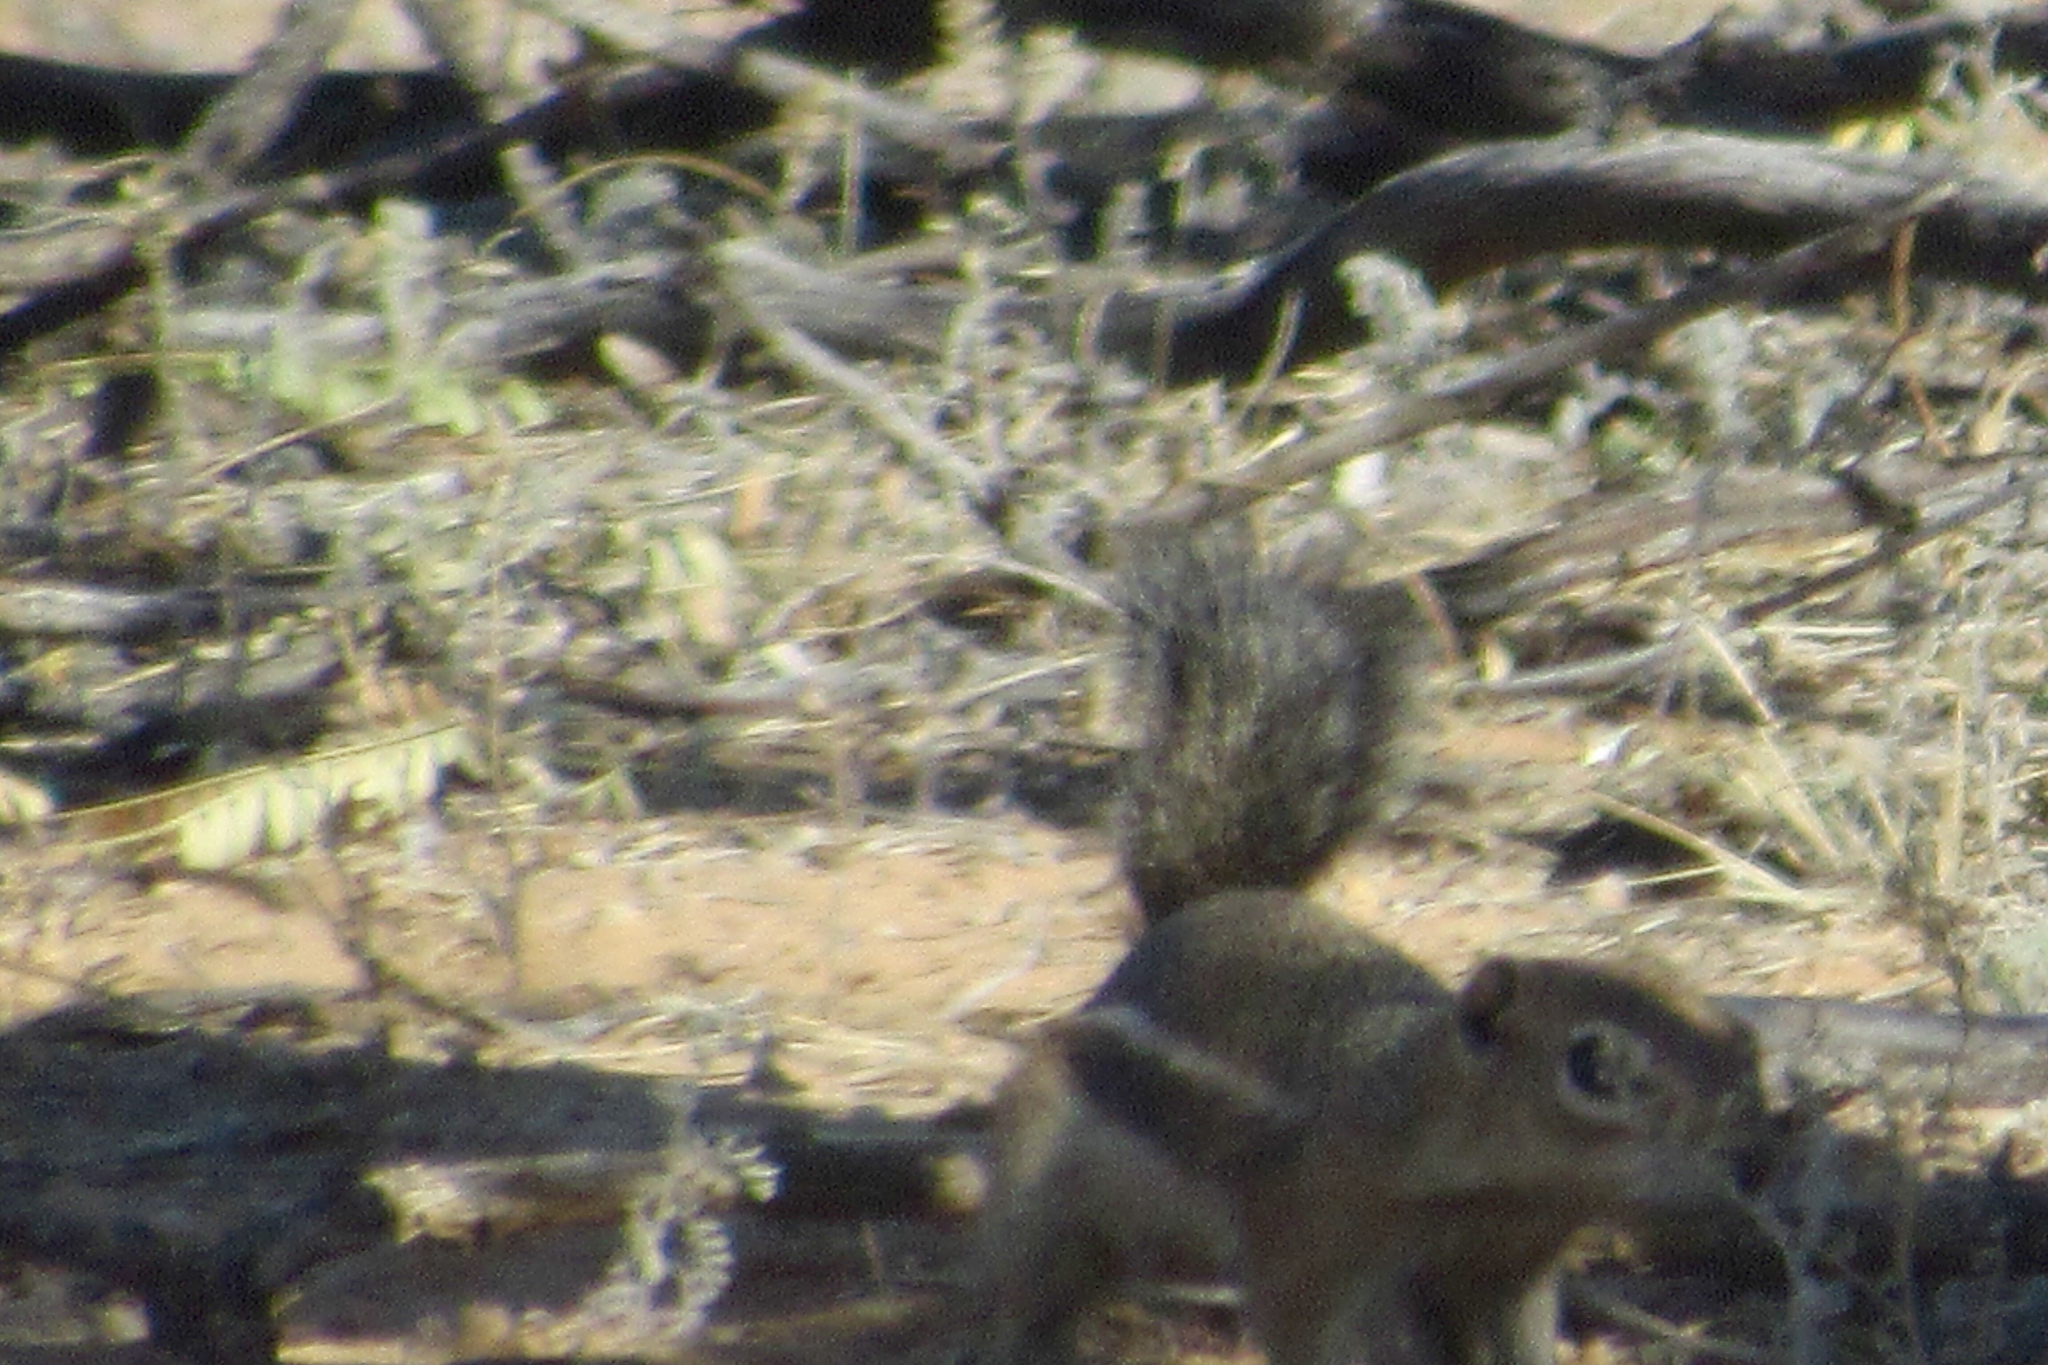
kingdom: Animalia
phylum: Chordata
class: Mammalia
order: Rodentia
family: Sciuridae
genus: Ammospermophilus
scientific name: Ammospermophilus harrisii
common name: Harris's antelope squirrel
